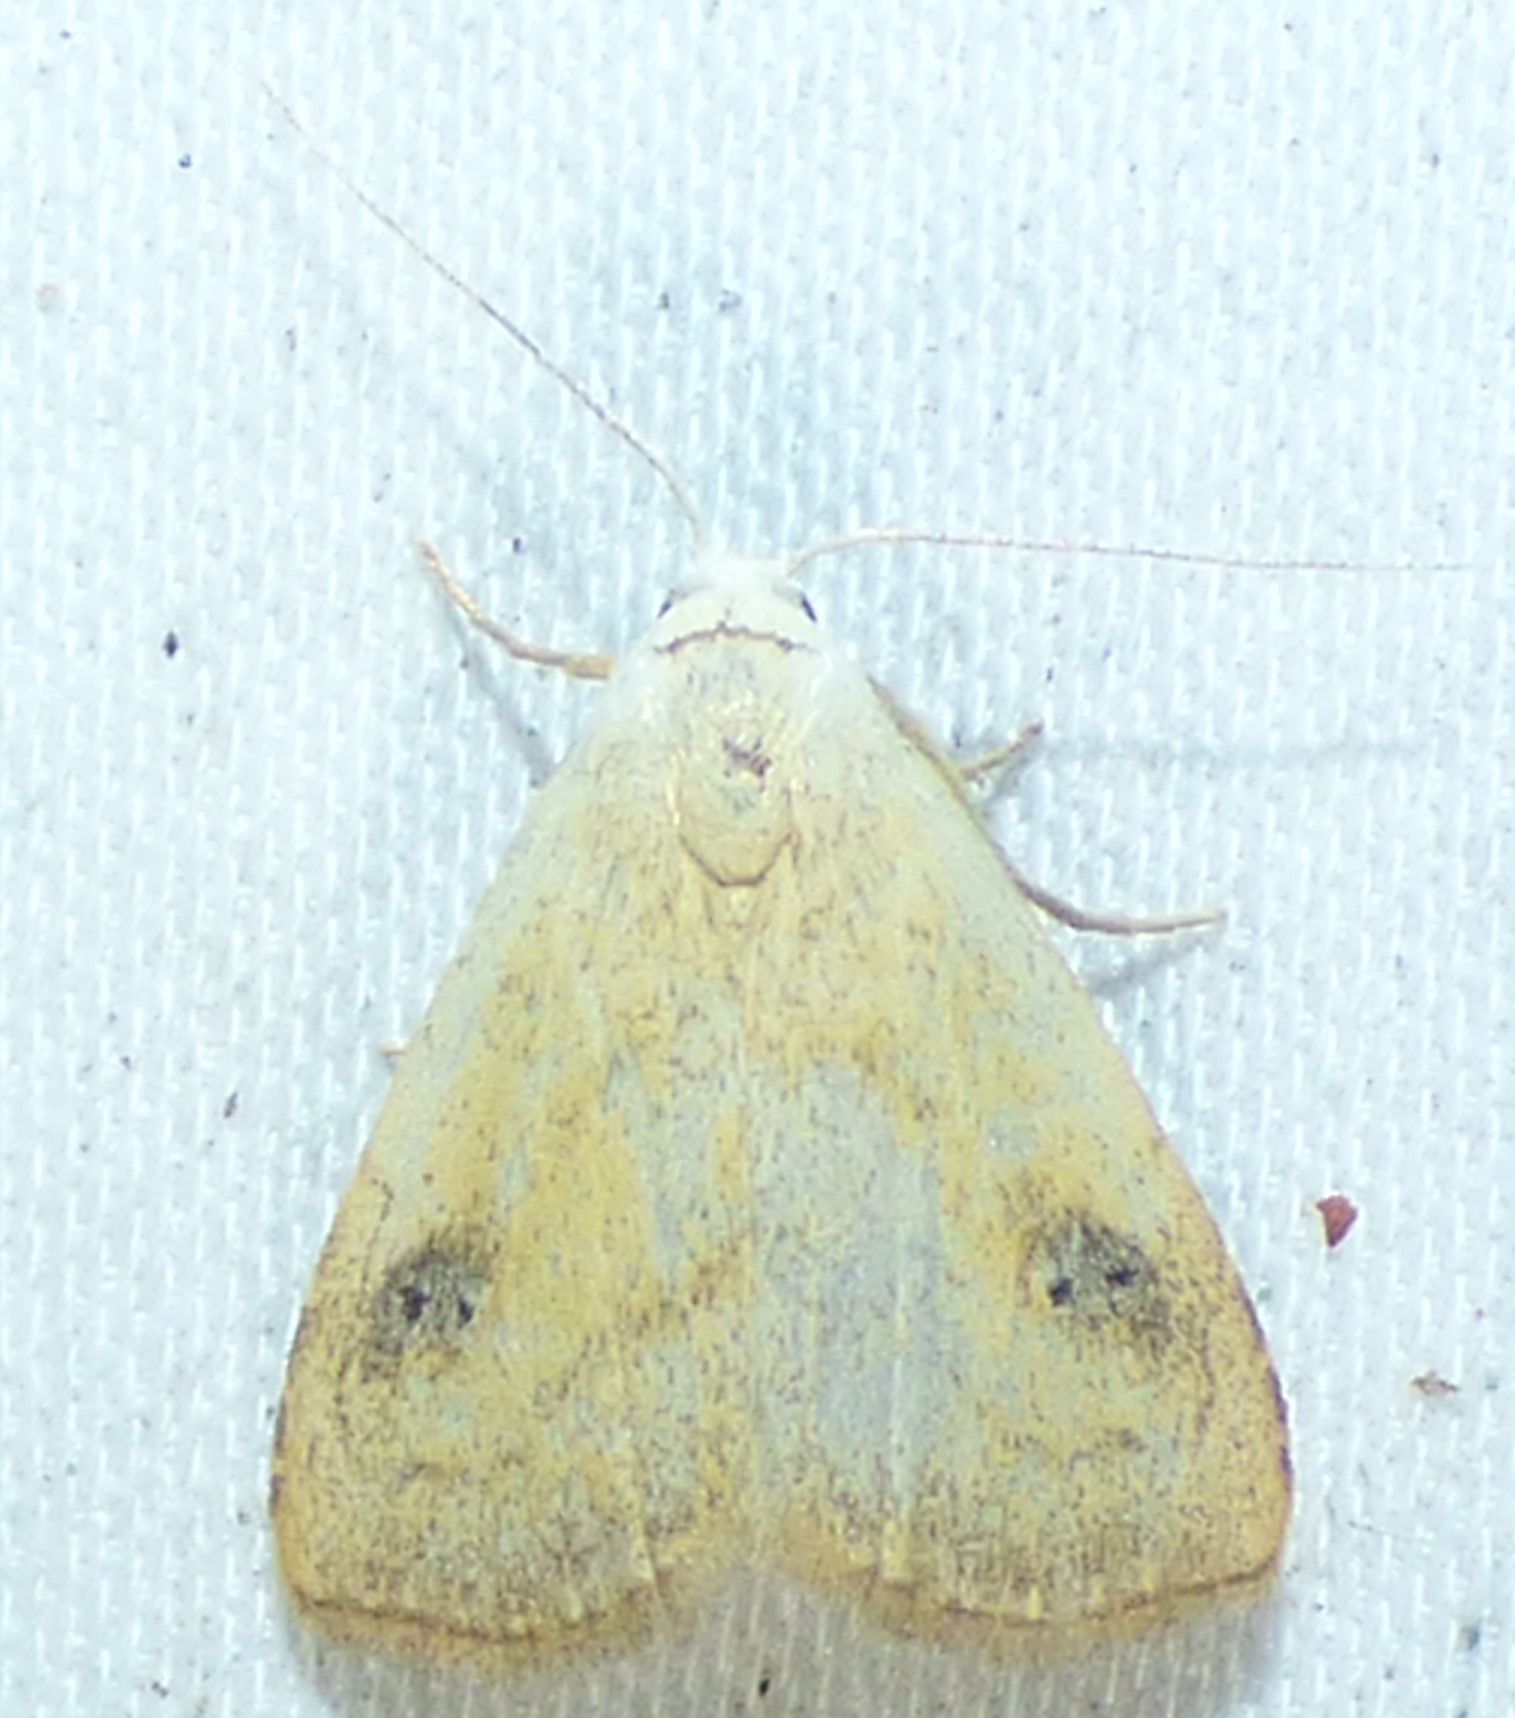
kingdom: Animalia
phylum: Arthropoda
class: Insecta
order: Lepidoptera
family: Erebidae
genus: Rivula
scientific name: Rivula propinqualis
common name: Spotted grass moth
